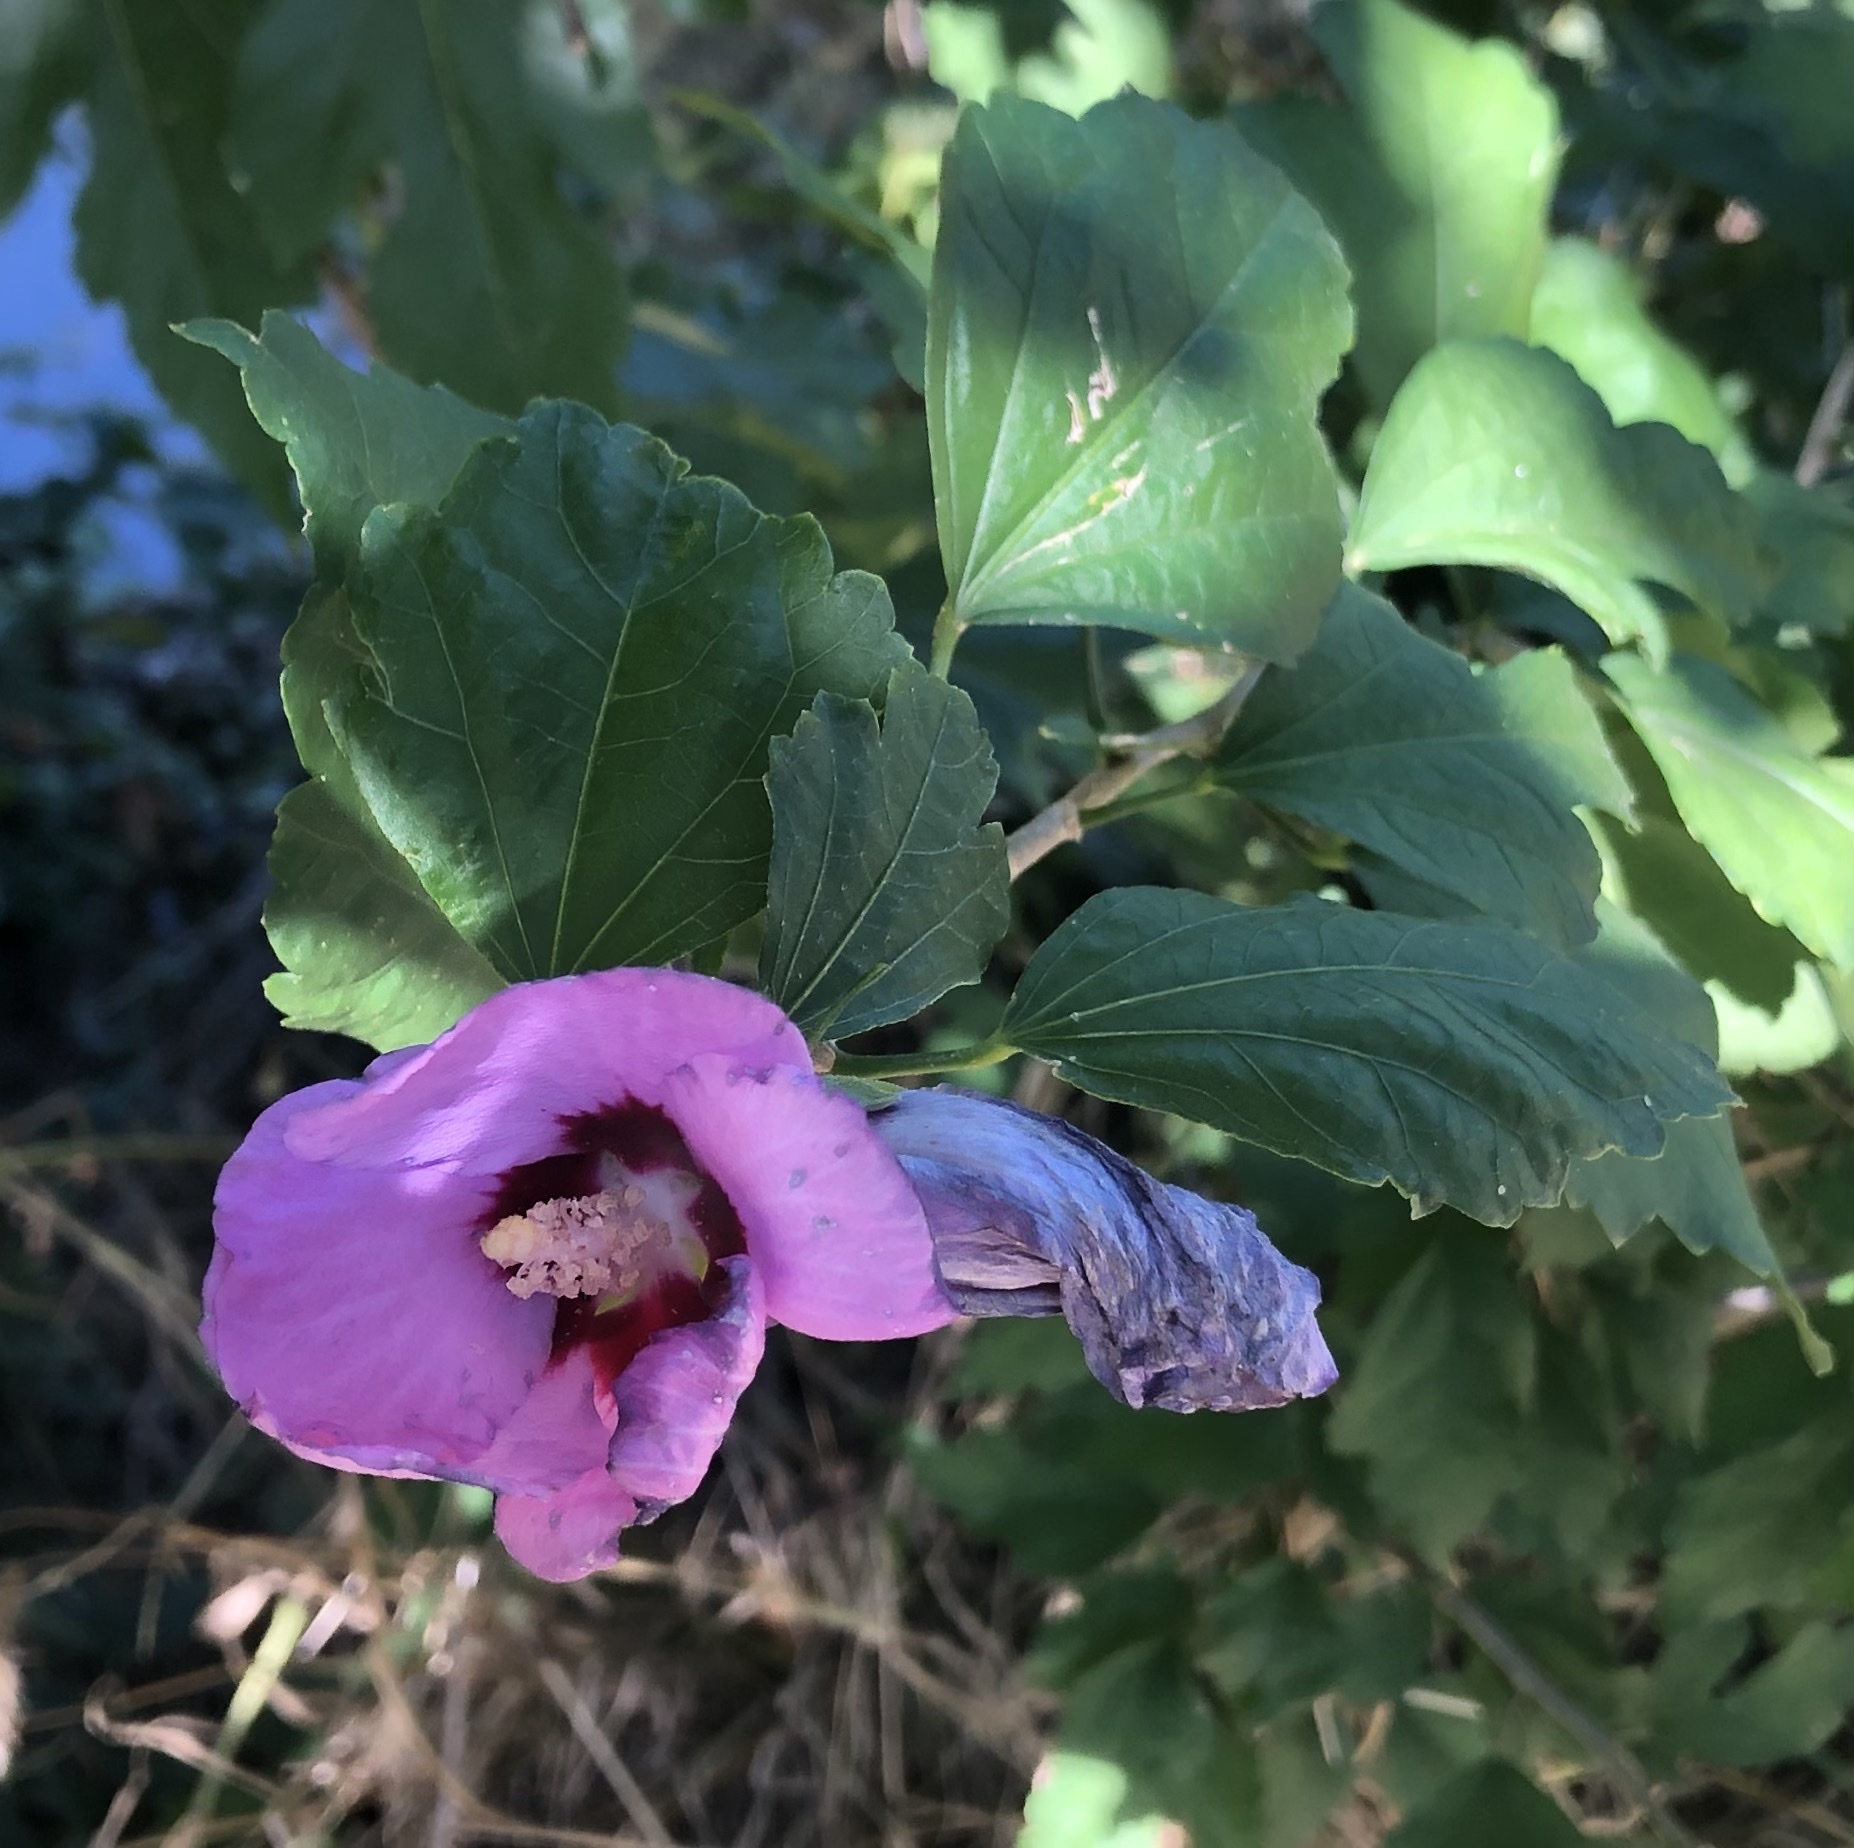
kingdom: Plantae
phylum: Tracheophyta
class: Magnoliopsida
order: Malvales
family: Malvaceae
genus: Hibiscus
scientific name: Hibiscus syriacus
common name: Syrian ketmia
